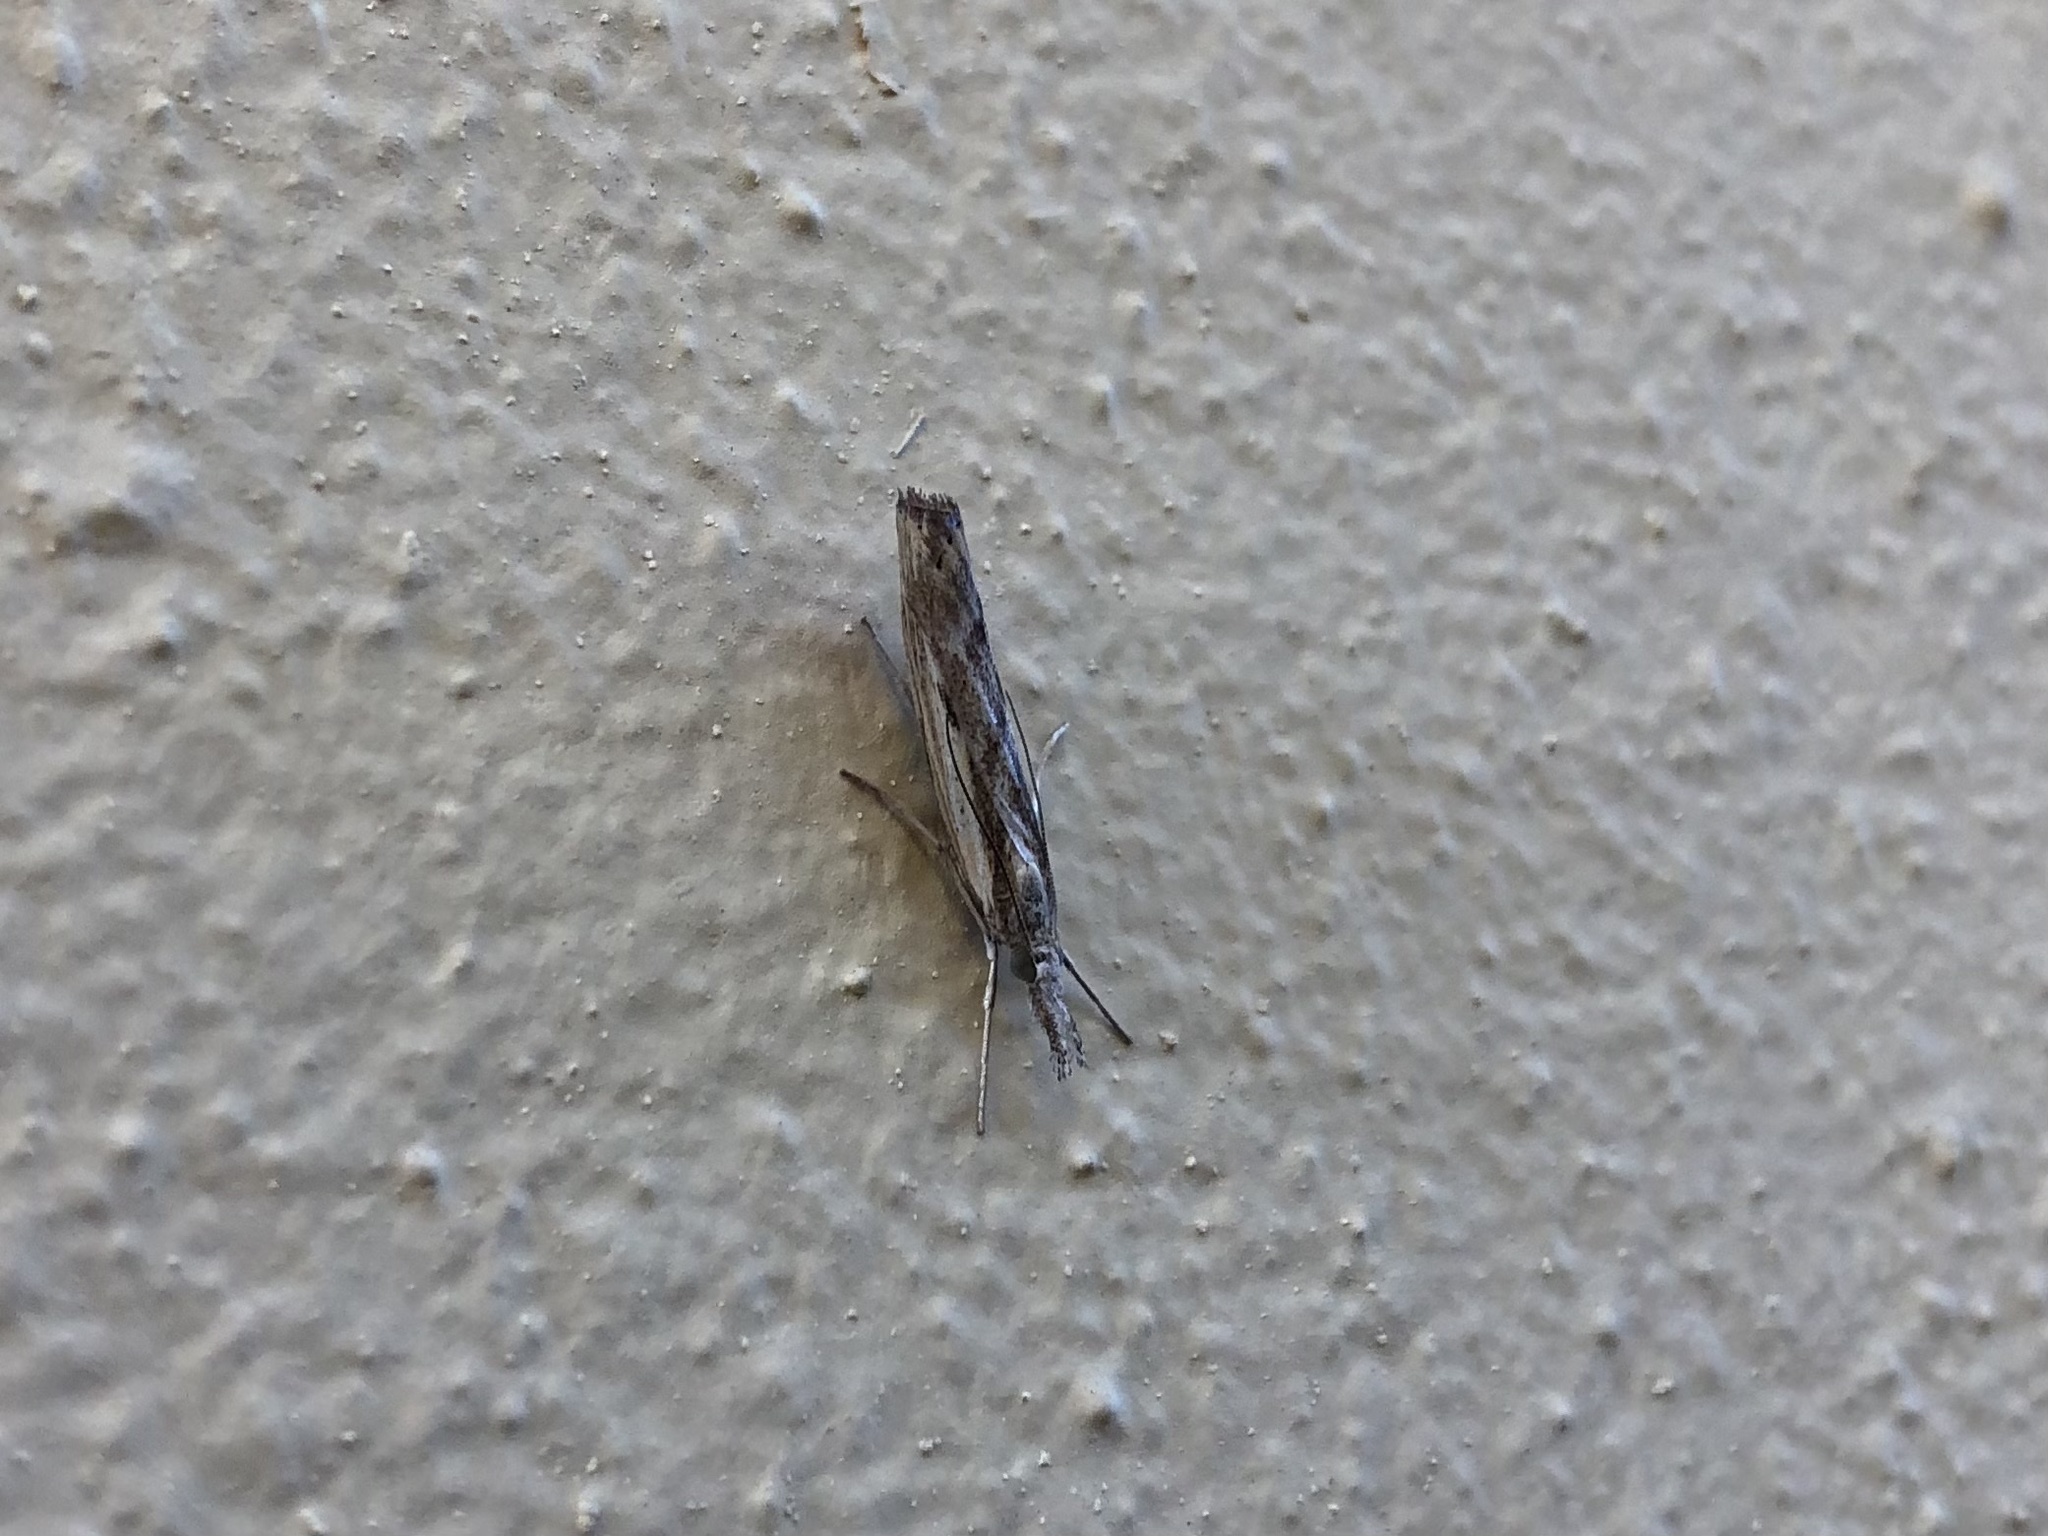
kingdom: Animalia
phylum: Arthropoda
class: Insecta
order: Lepidoptera
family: Crambidae
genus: Agriphila
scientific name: Agriphila geniculea
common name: Elbow-stripe grass-veneer
